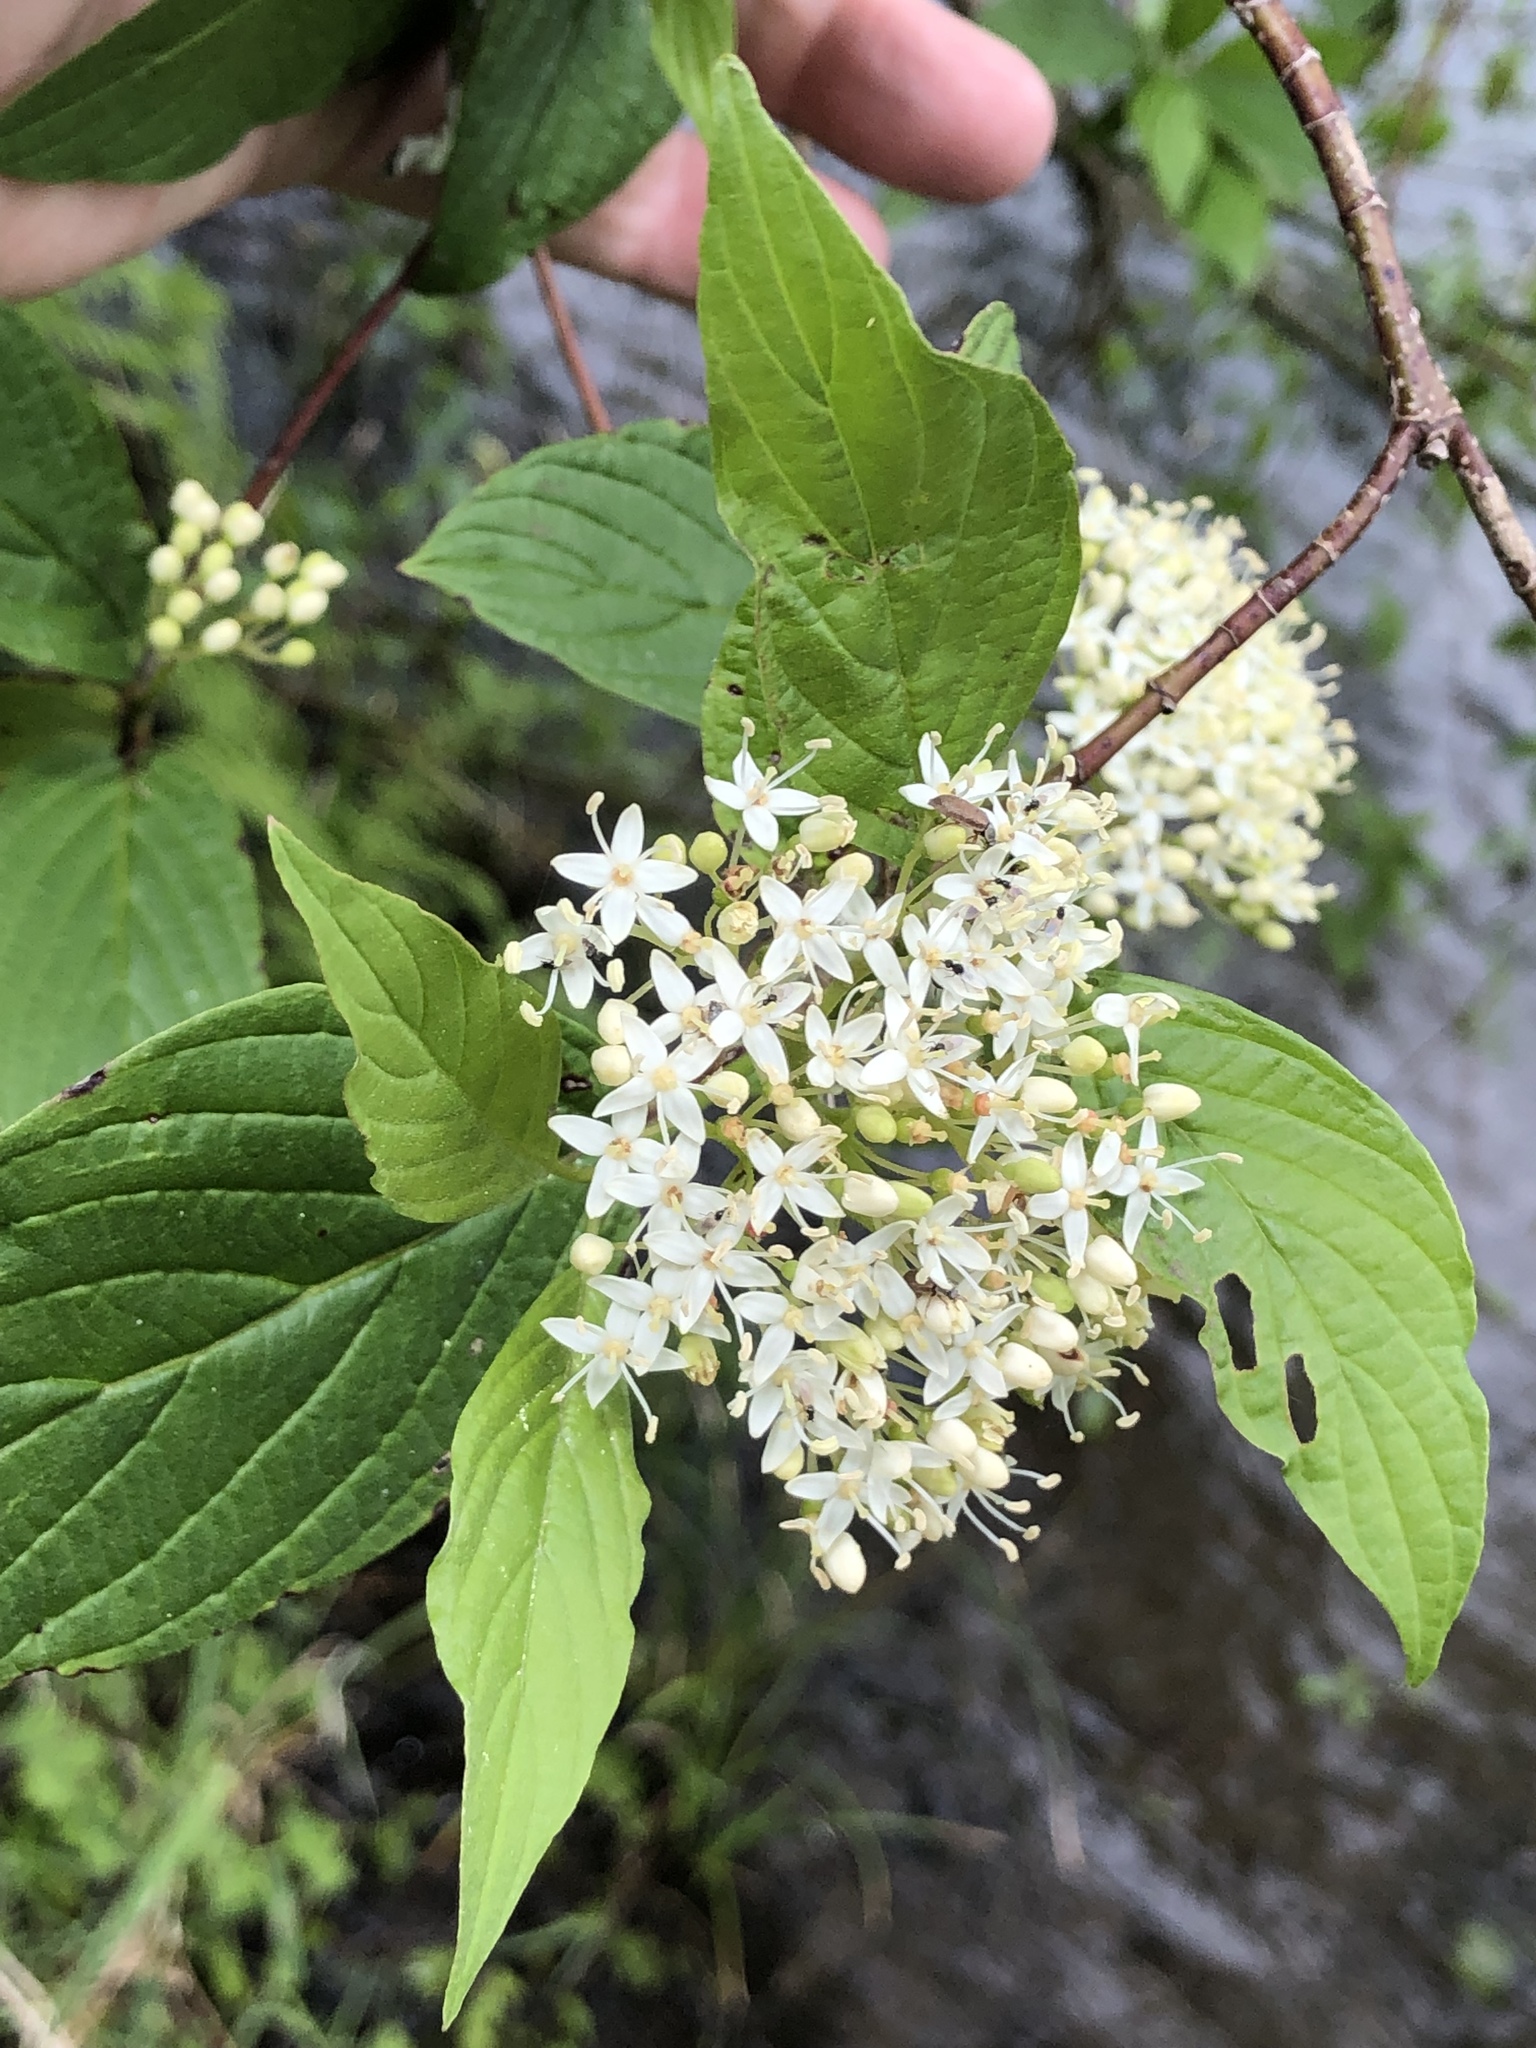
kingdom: Plantae
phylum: Tracheophyta
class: Magnoliopsida
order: Cornales
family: Cornaceae
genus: Cornus
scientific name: Cornus sericea
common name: Red-osier dogwood
